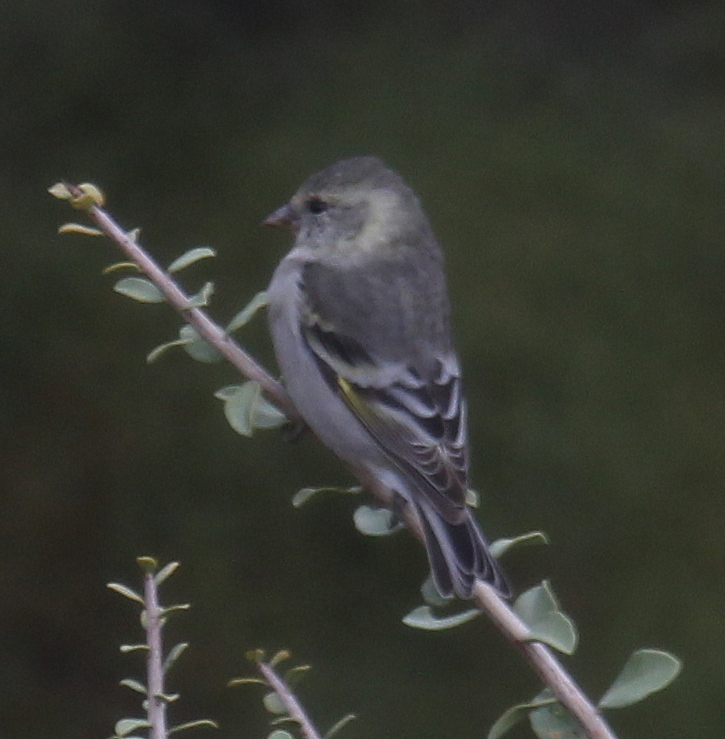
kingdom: Animalia
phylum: Chordata
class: Aves
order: Passeriformes
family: Fringillidae
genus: Spinus
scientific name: Spinus barbatus
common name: Black-chinned siskin
